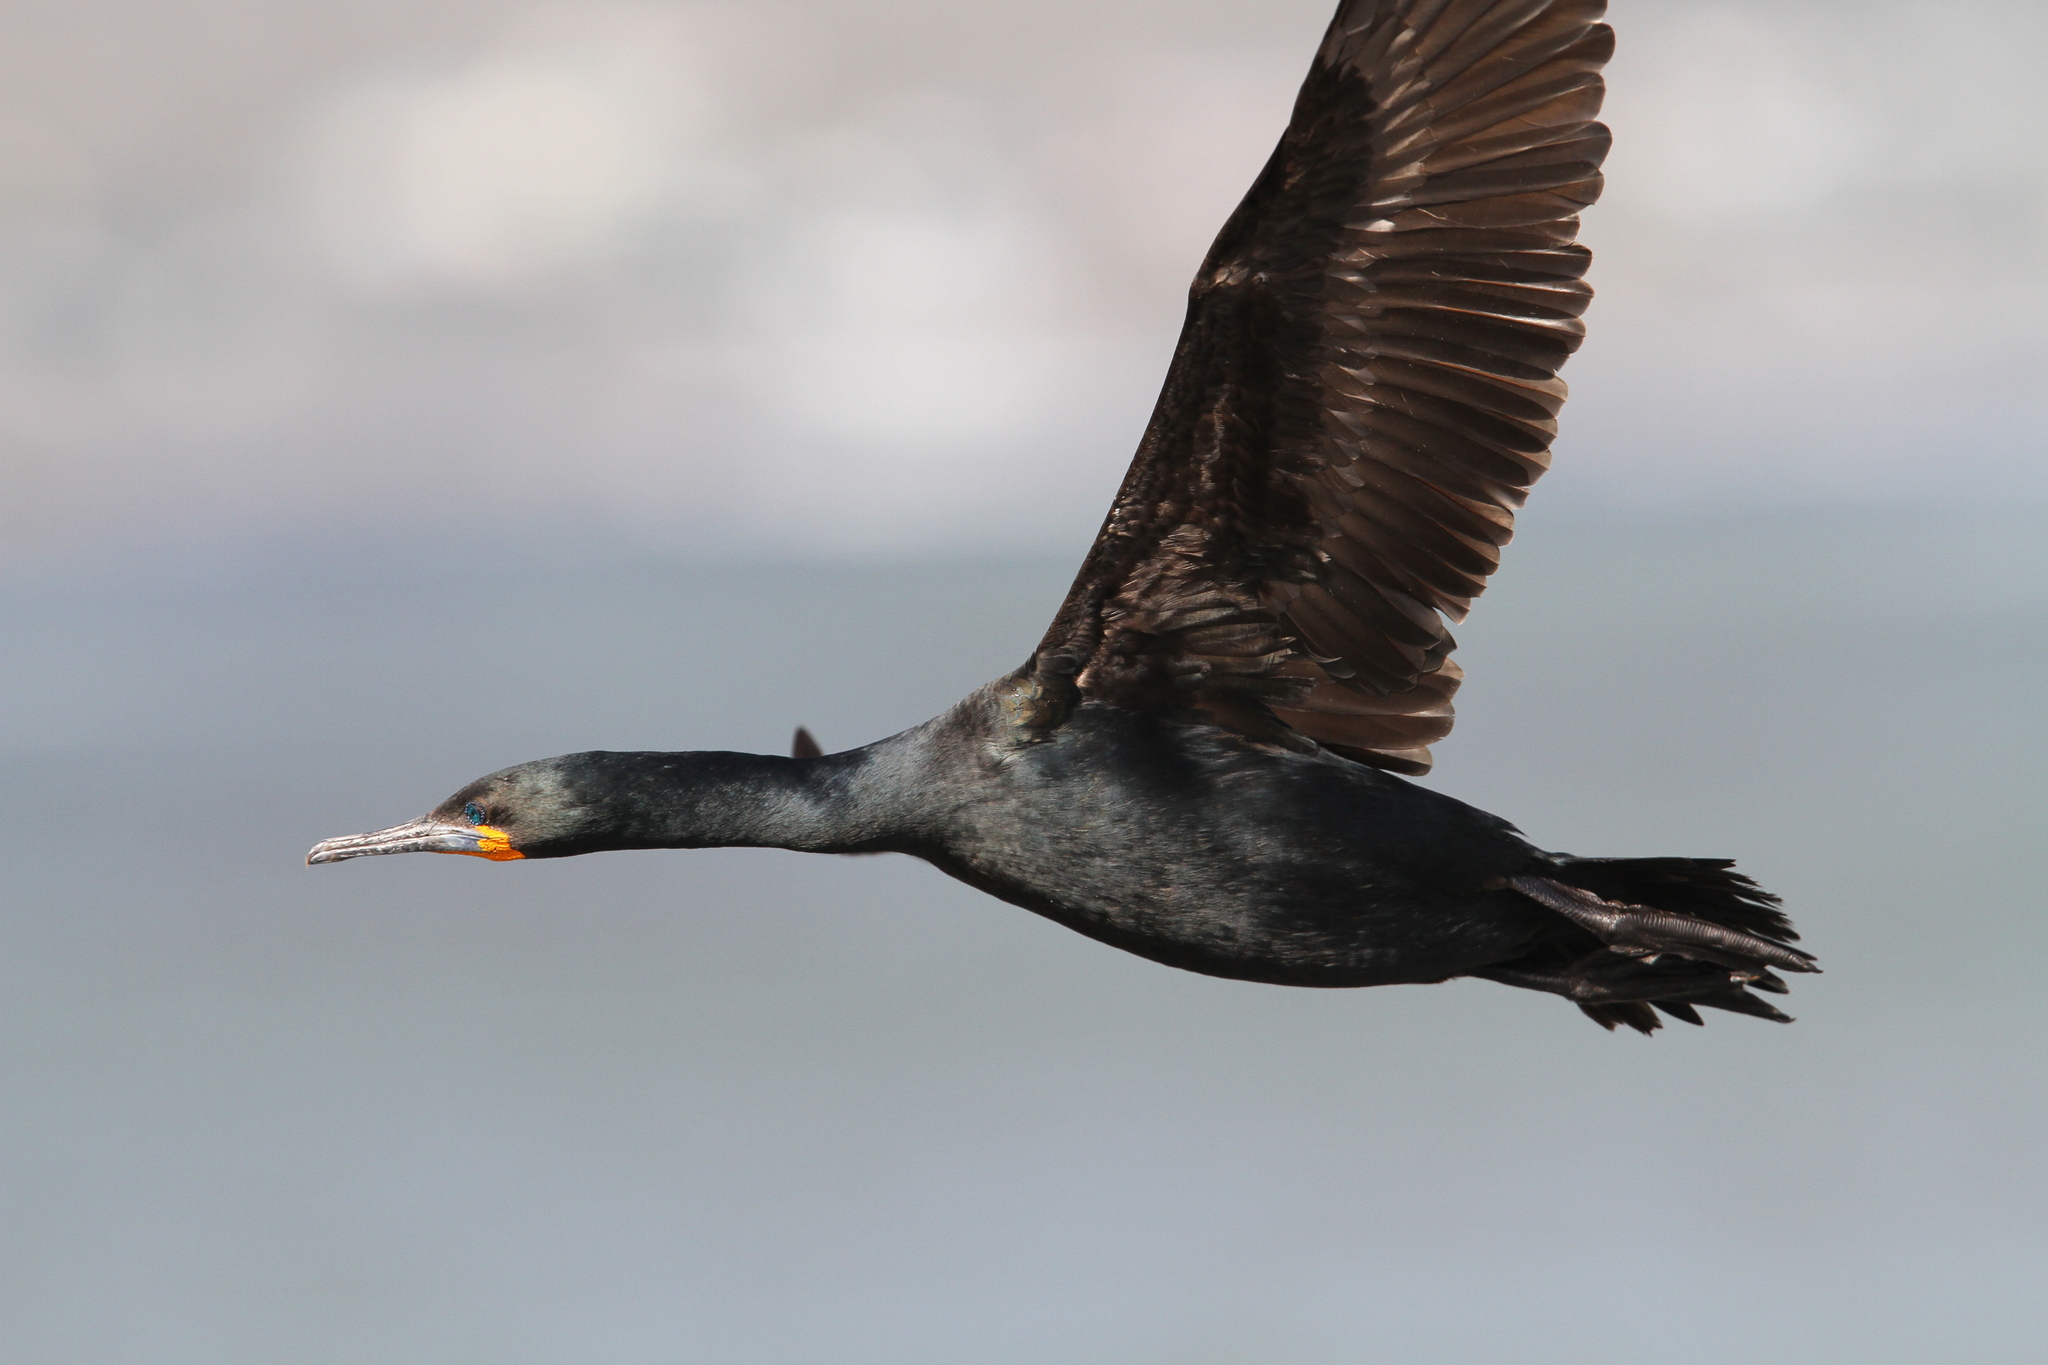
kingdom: Animalia
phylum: Chordata
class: Aves
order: Suliformes
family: Phalacrocoracidae
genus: Phalacrocorax
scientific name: Phalacrocorax capensis
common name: Cape cormorant
